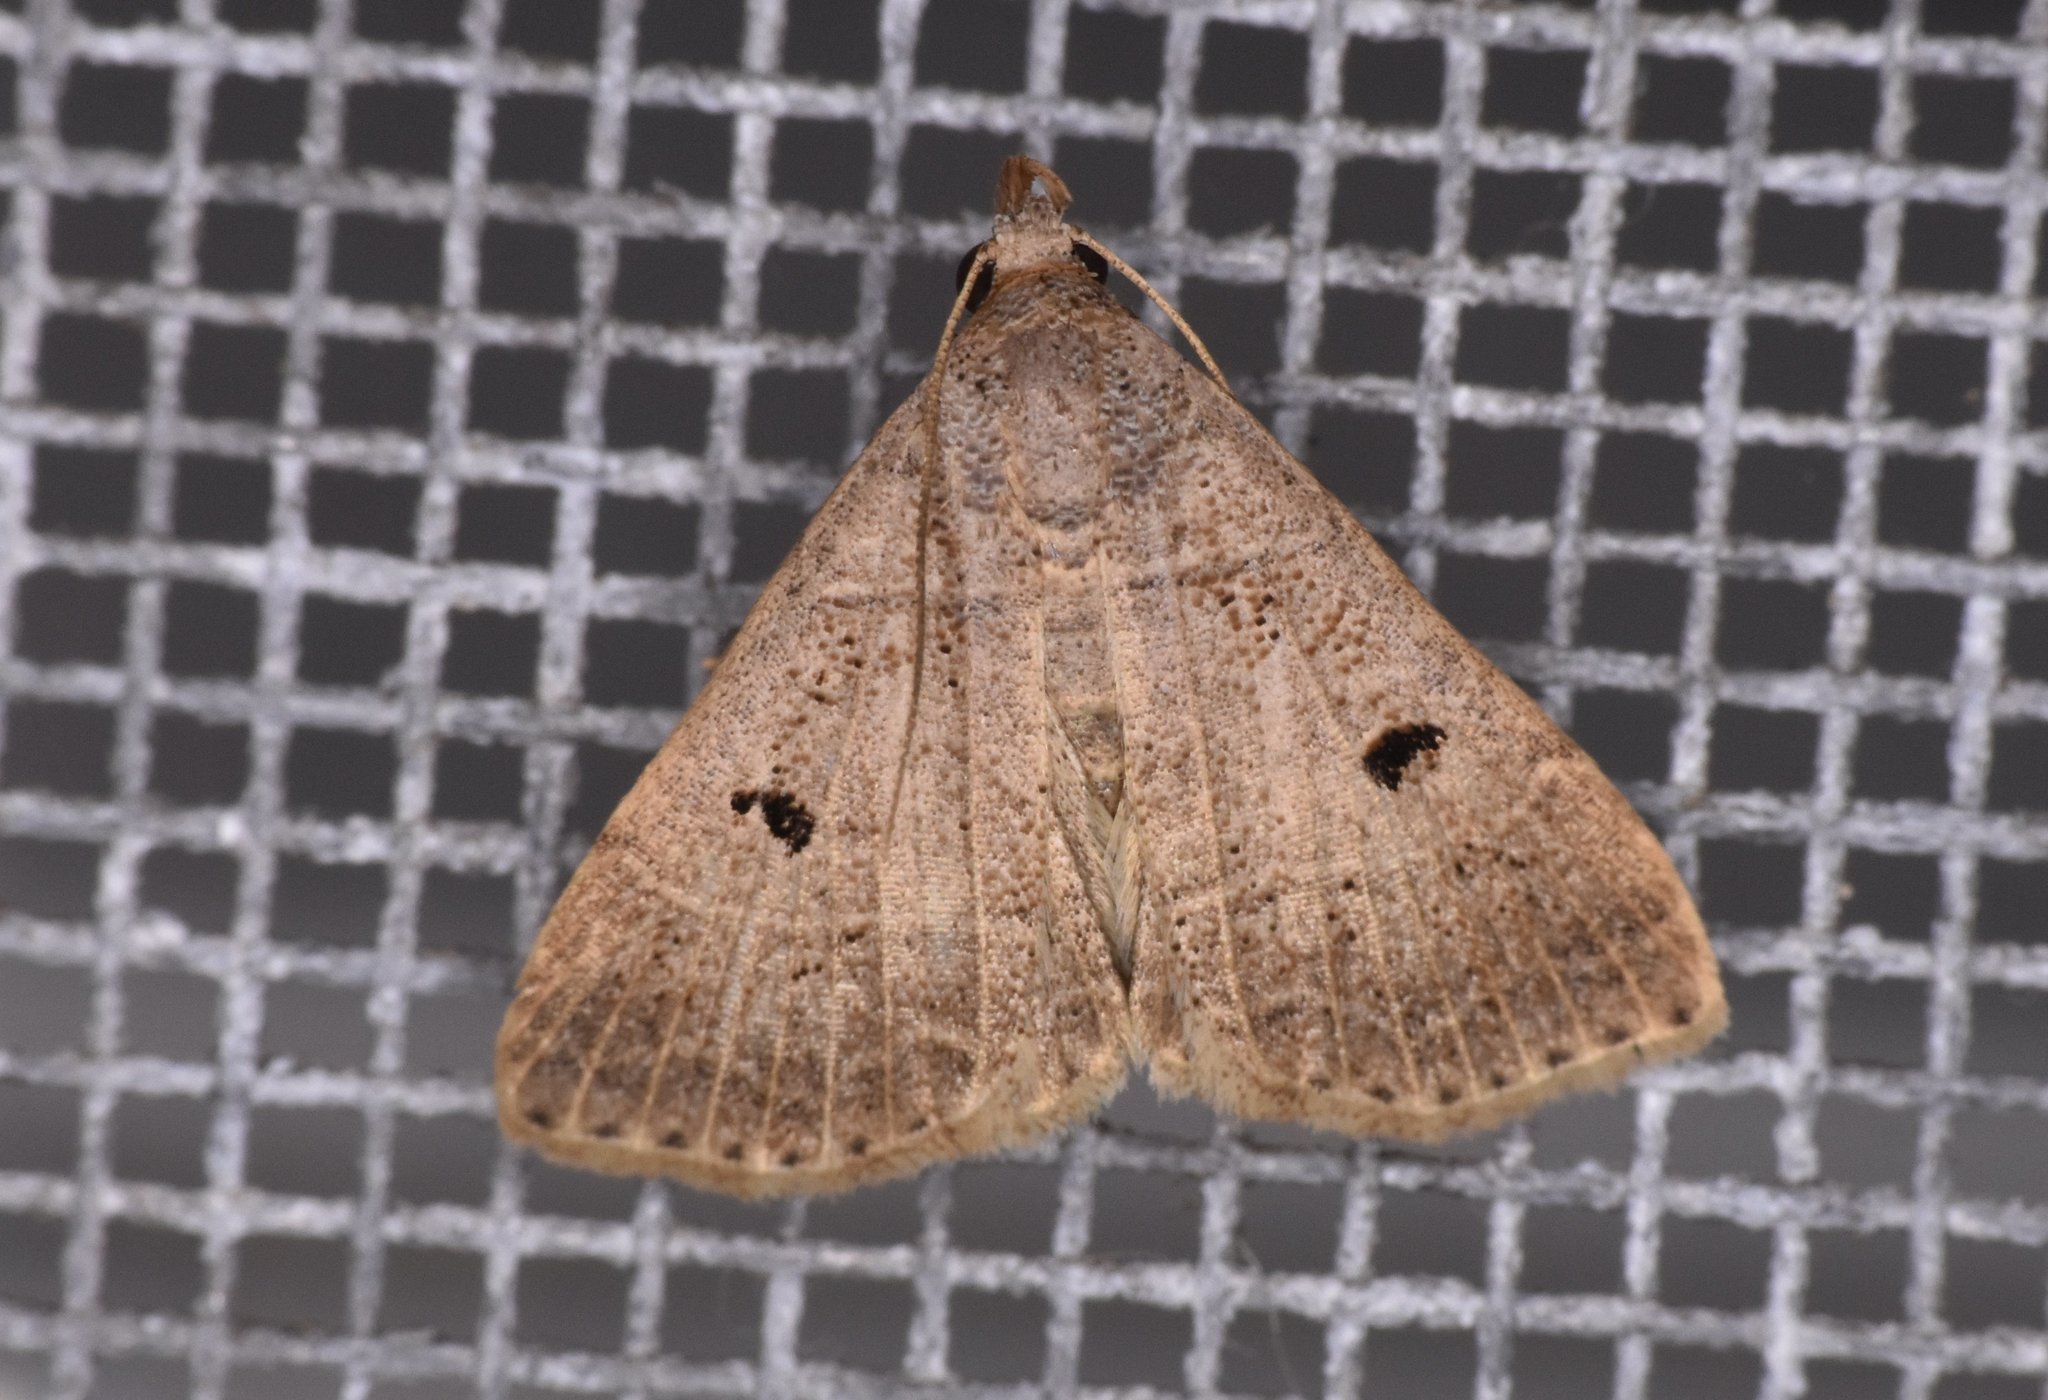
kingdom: Animalia
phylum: Arthropoda
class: Insecta
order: Lepidoptera
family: Erebidae
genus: Bleptina
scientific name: Bleptina flavivena
